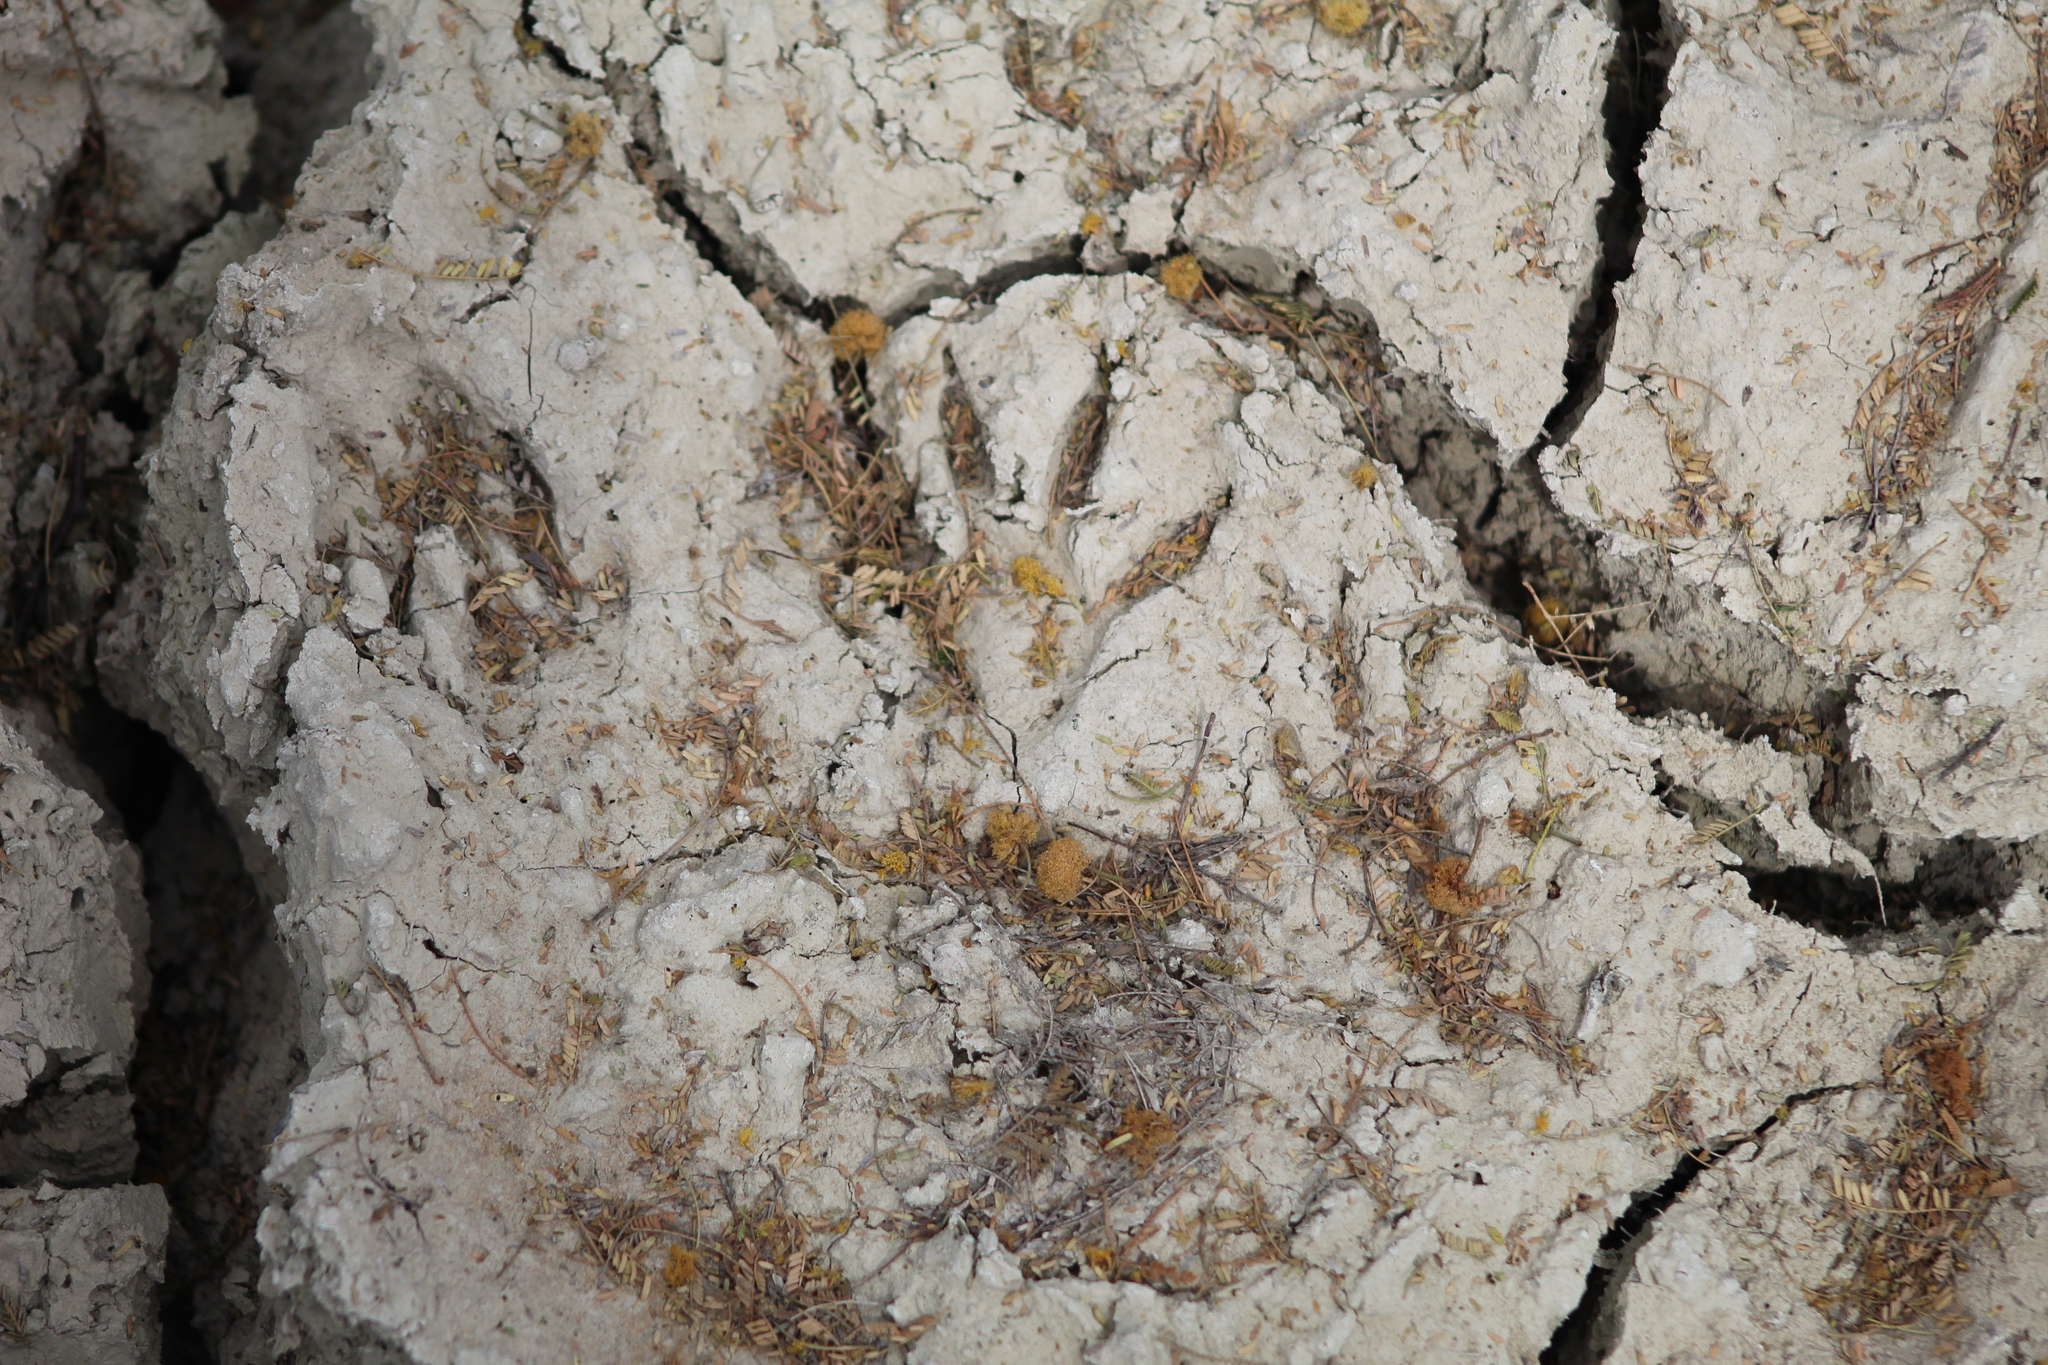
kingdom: Animalia
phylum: Chordata
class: Mammalia
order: Carnivora
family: Procyonidae
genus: Procyon
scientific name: Procyon lotor
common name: Raccoon
